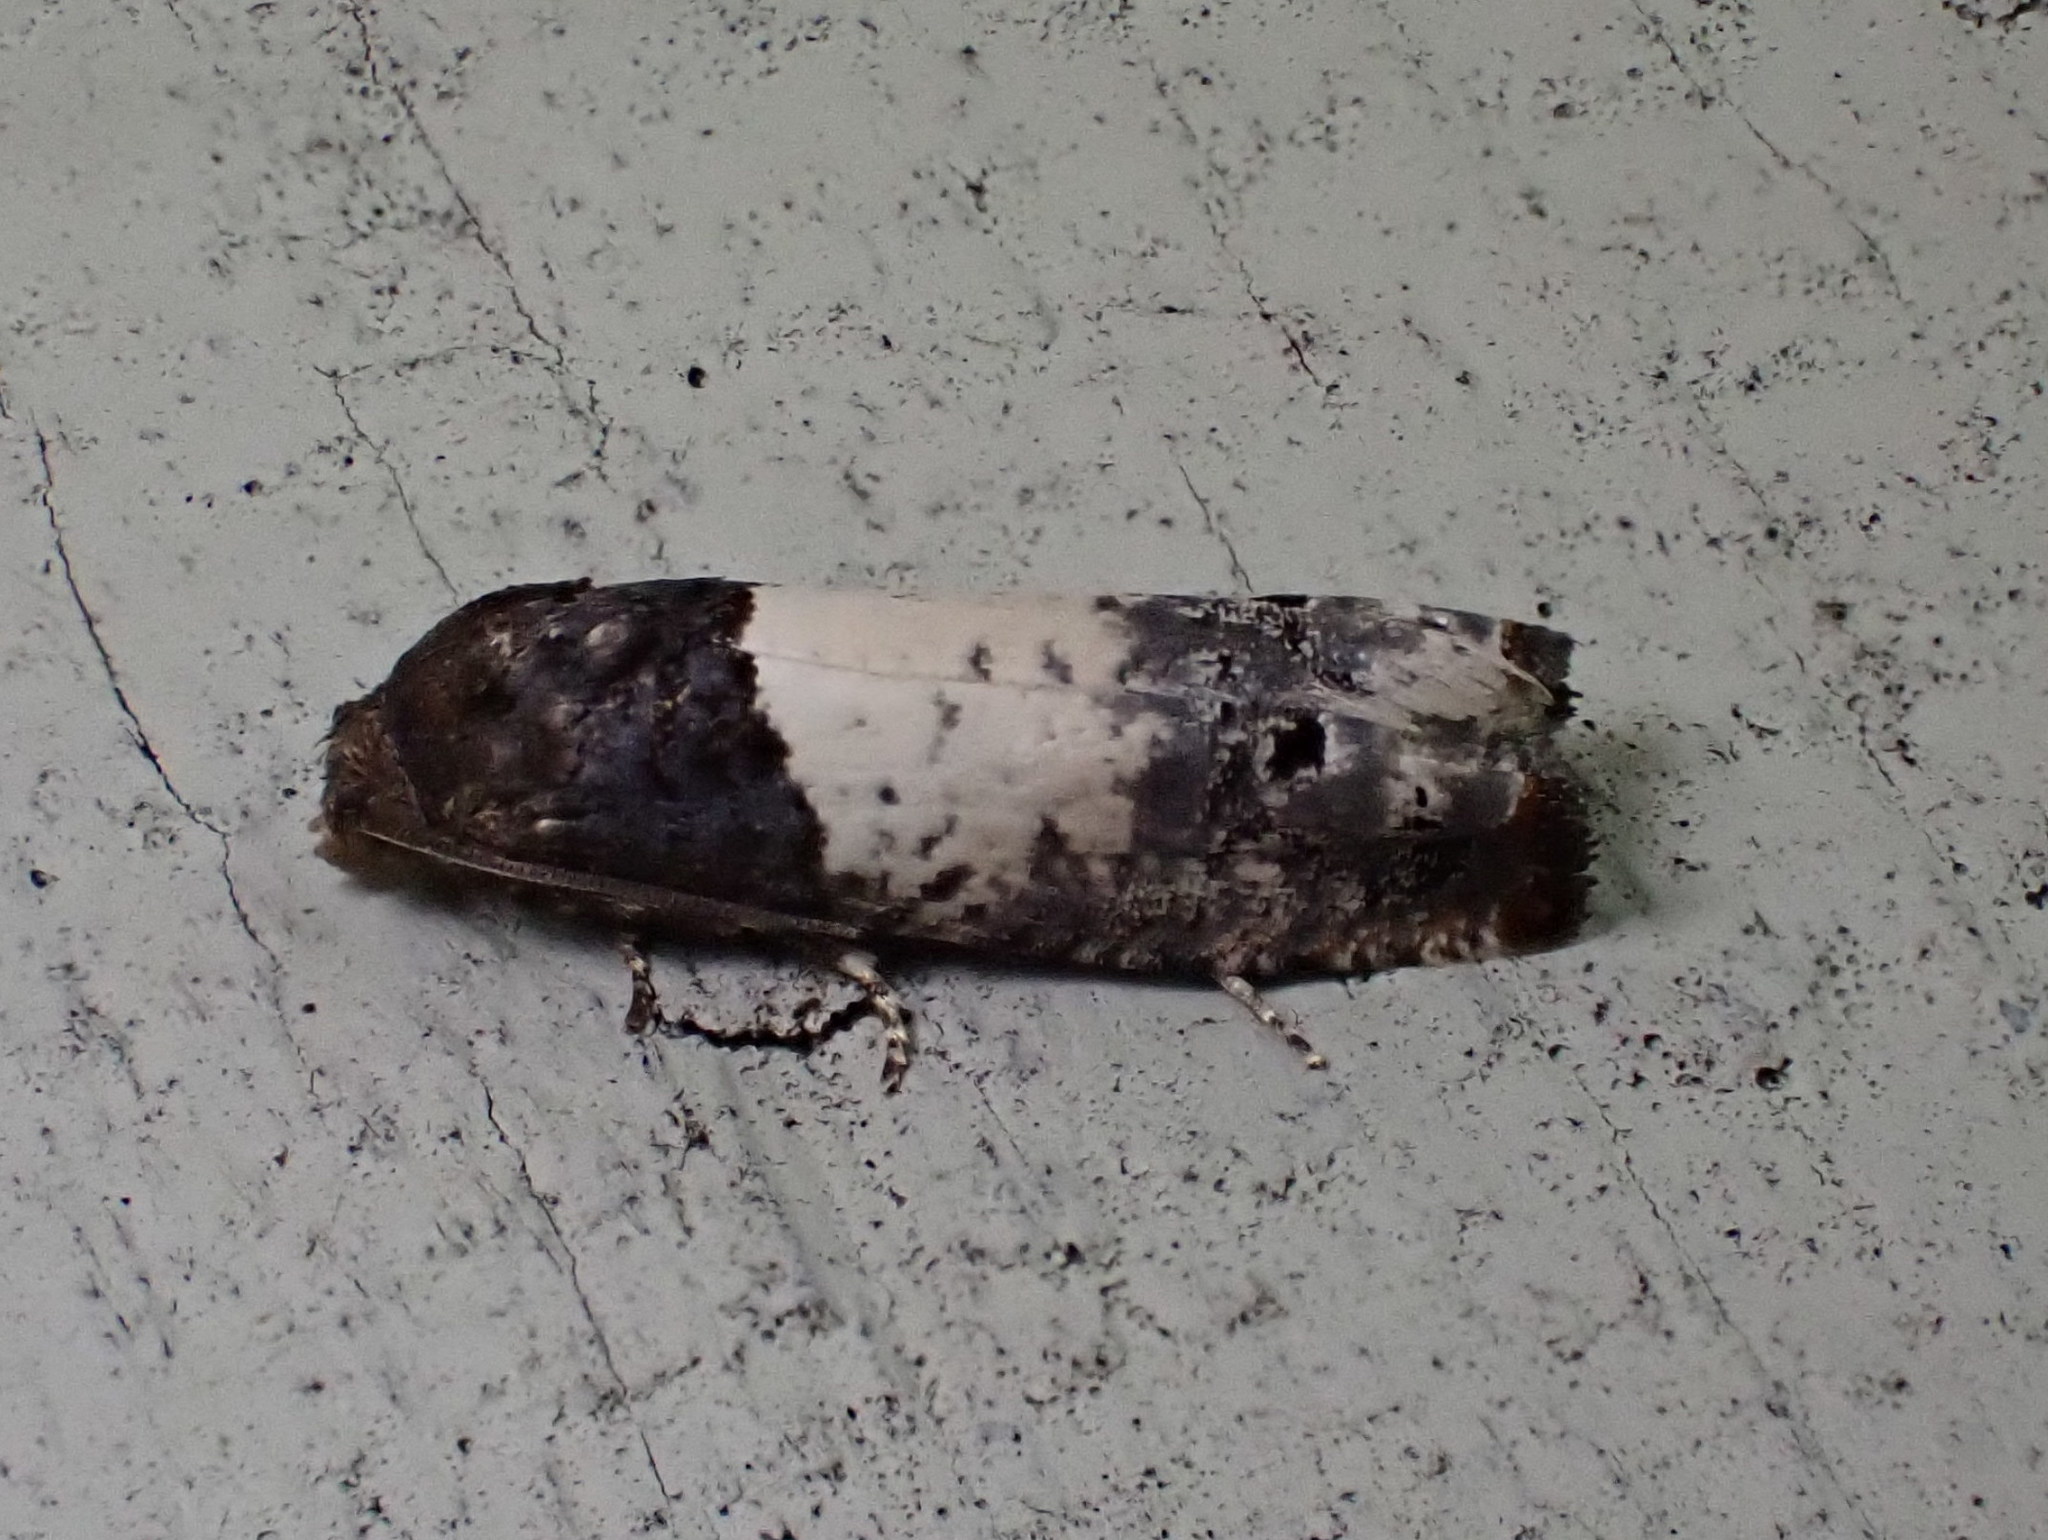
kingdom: Animalia
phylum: Arthropoda
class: Insecta
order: Lepidoptera
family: Tortricidae
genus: Epiblema
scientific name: Epiblema scudderiana
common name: Goldenrod gall moth
